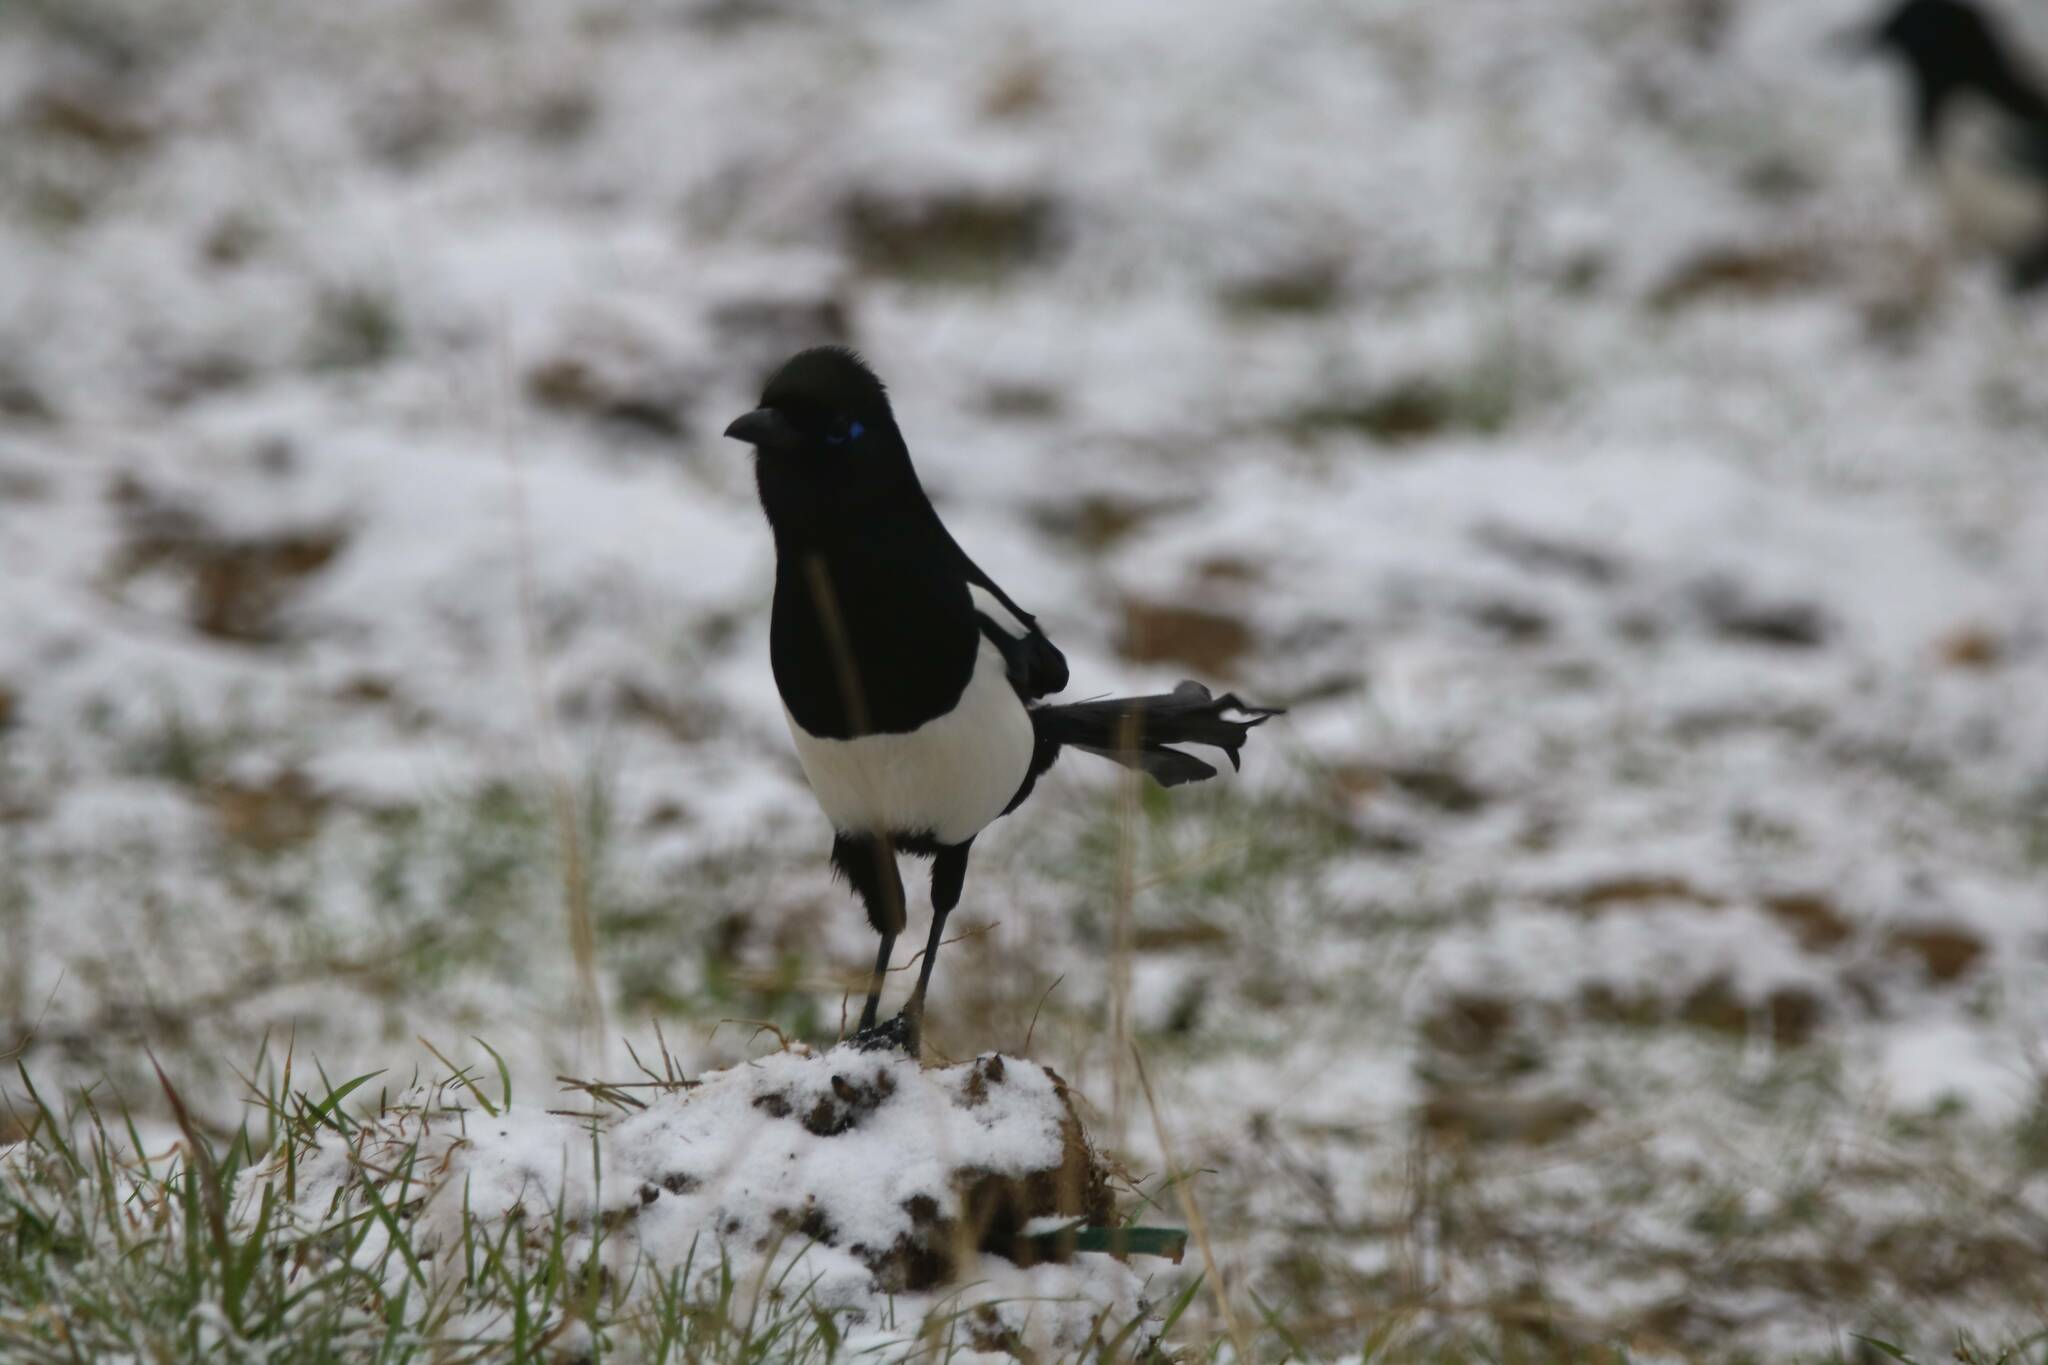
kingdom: Animalia
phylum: Chordata
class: Aves
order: Passeriformes
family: Corvidae
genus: Pica
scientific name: Pica mauritanica
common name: Maghreb magpie
